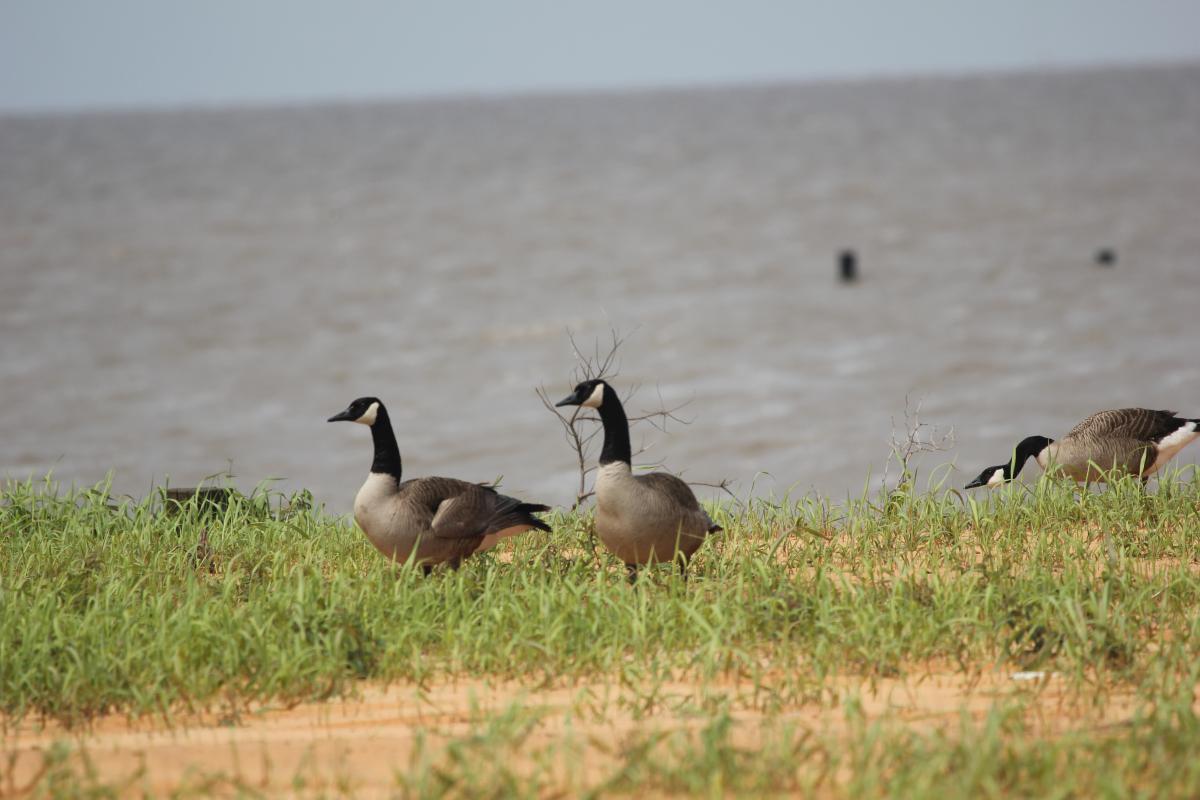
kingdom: Animalia
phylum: Chordata
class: Aves
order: Anseriformes
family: Anatidae
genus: Branta
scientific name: Branta canadensis
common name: Canada goose
